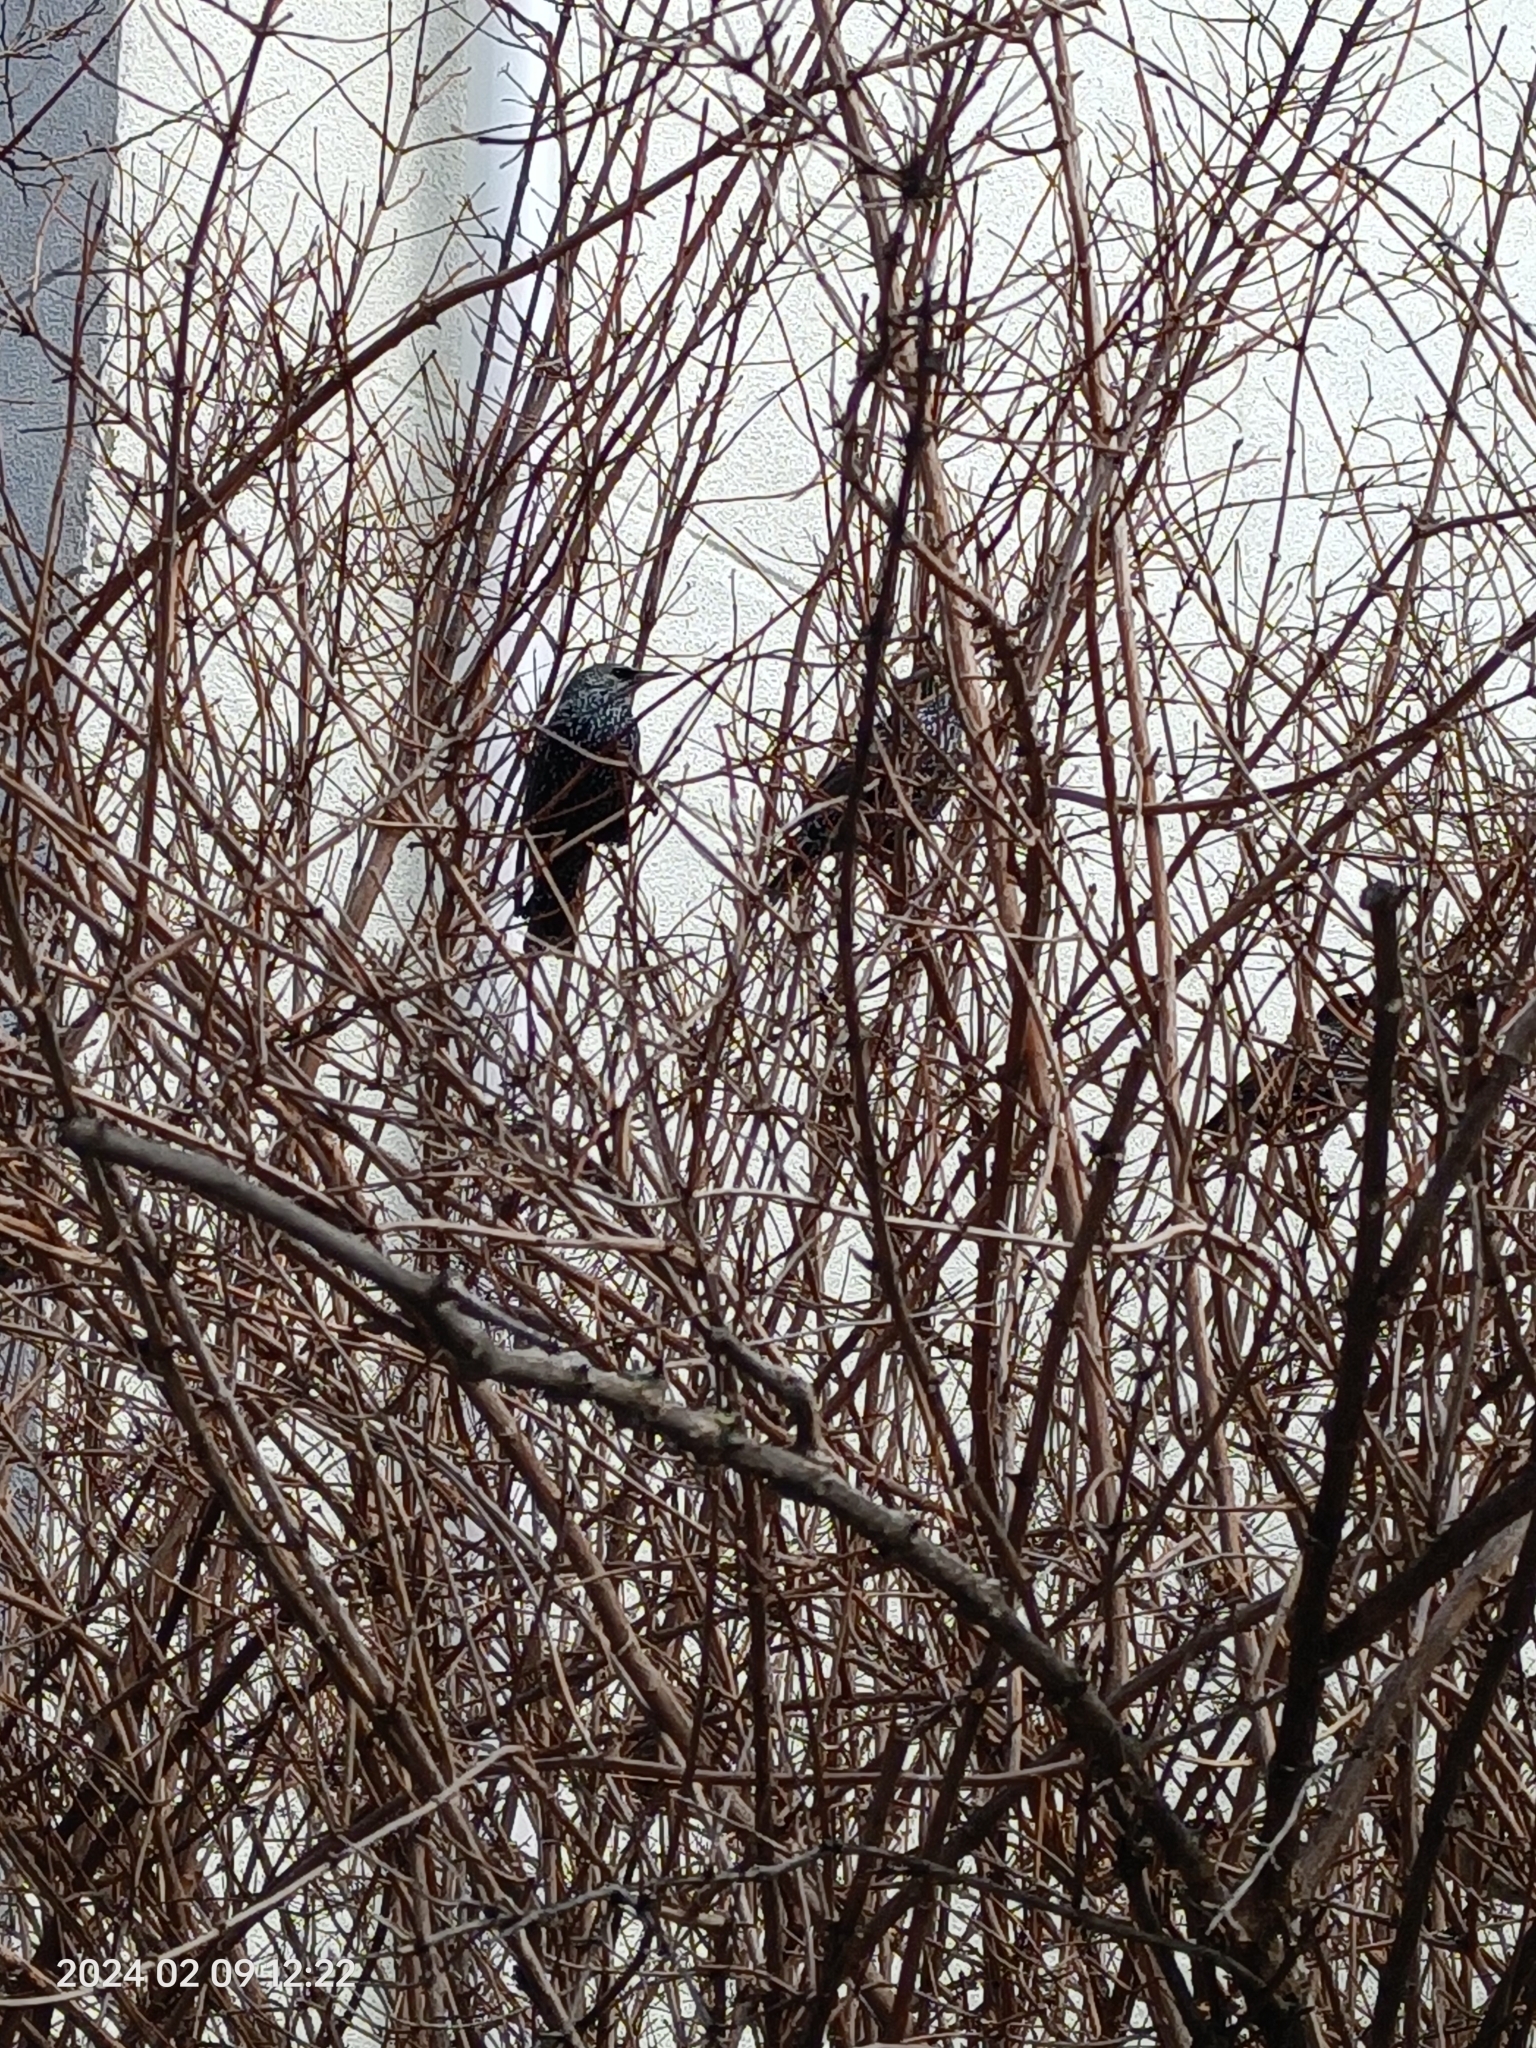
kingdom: Animalia
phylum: Chordata
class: Aves
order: Passeriformes
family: Sturnidae
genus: Sturnus
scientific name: Sturnus vulgaris
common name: Common starling
